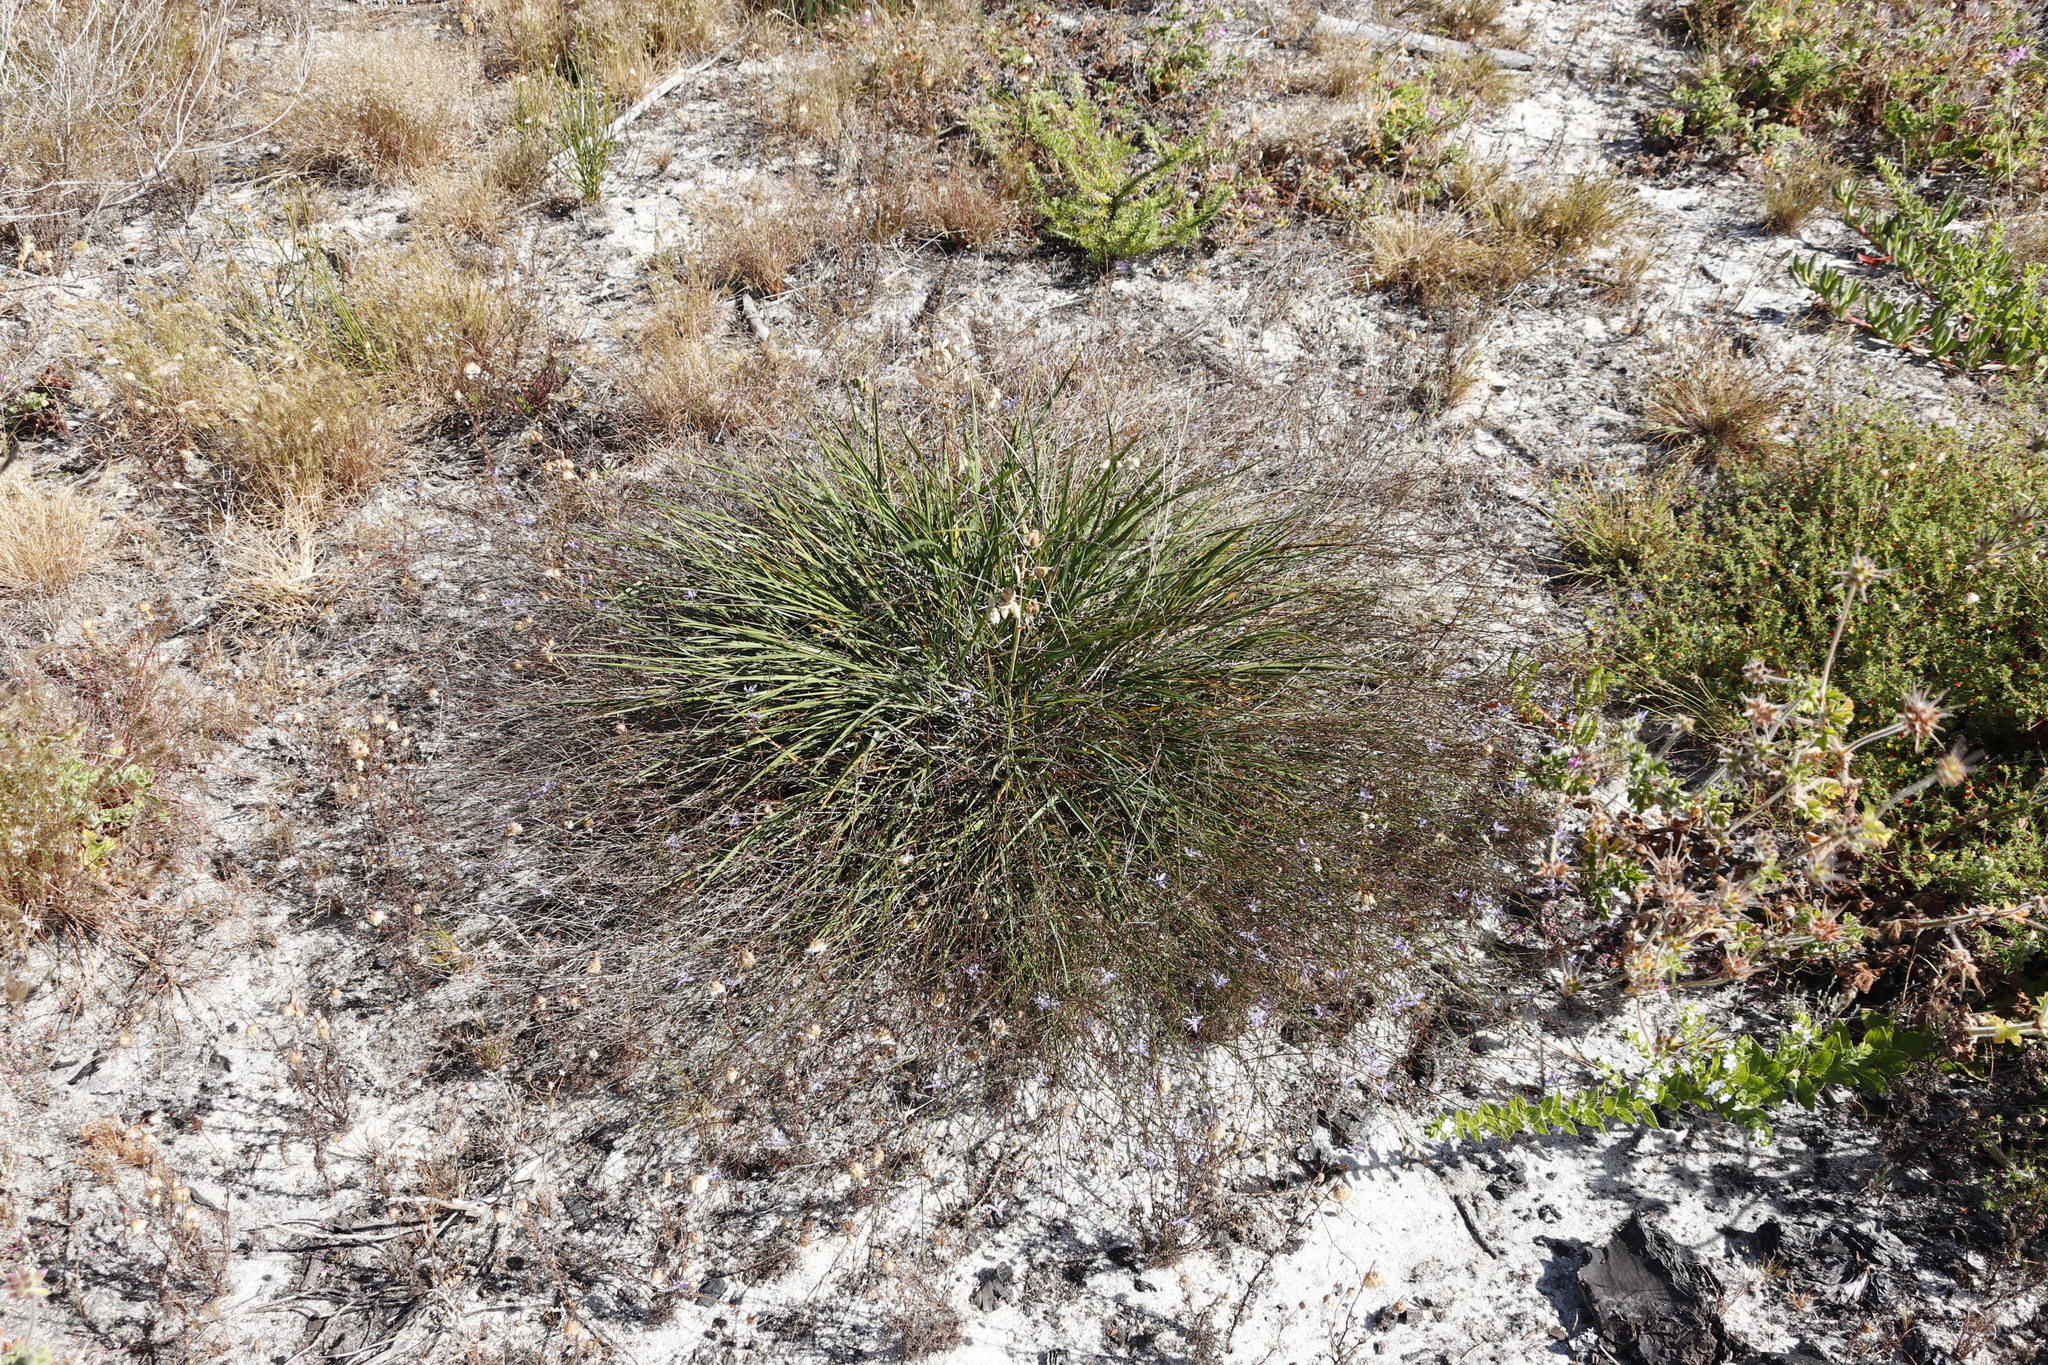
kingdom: Plantae
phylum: Tracheophyta
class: Liliopsida
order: Asparagales
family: Asphodelaceae
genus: Caesia
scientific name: Caesia contorta
